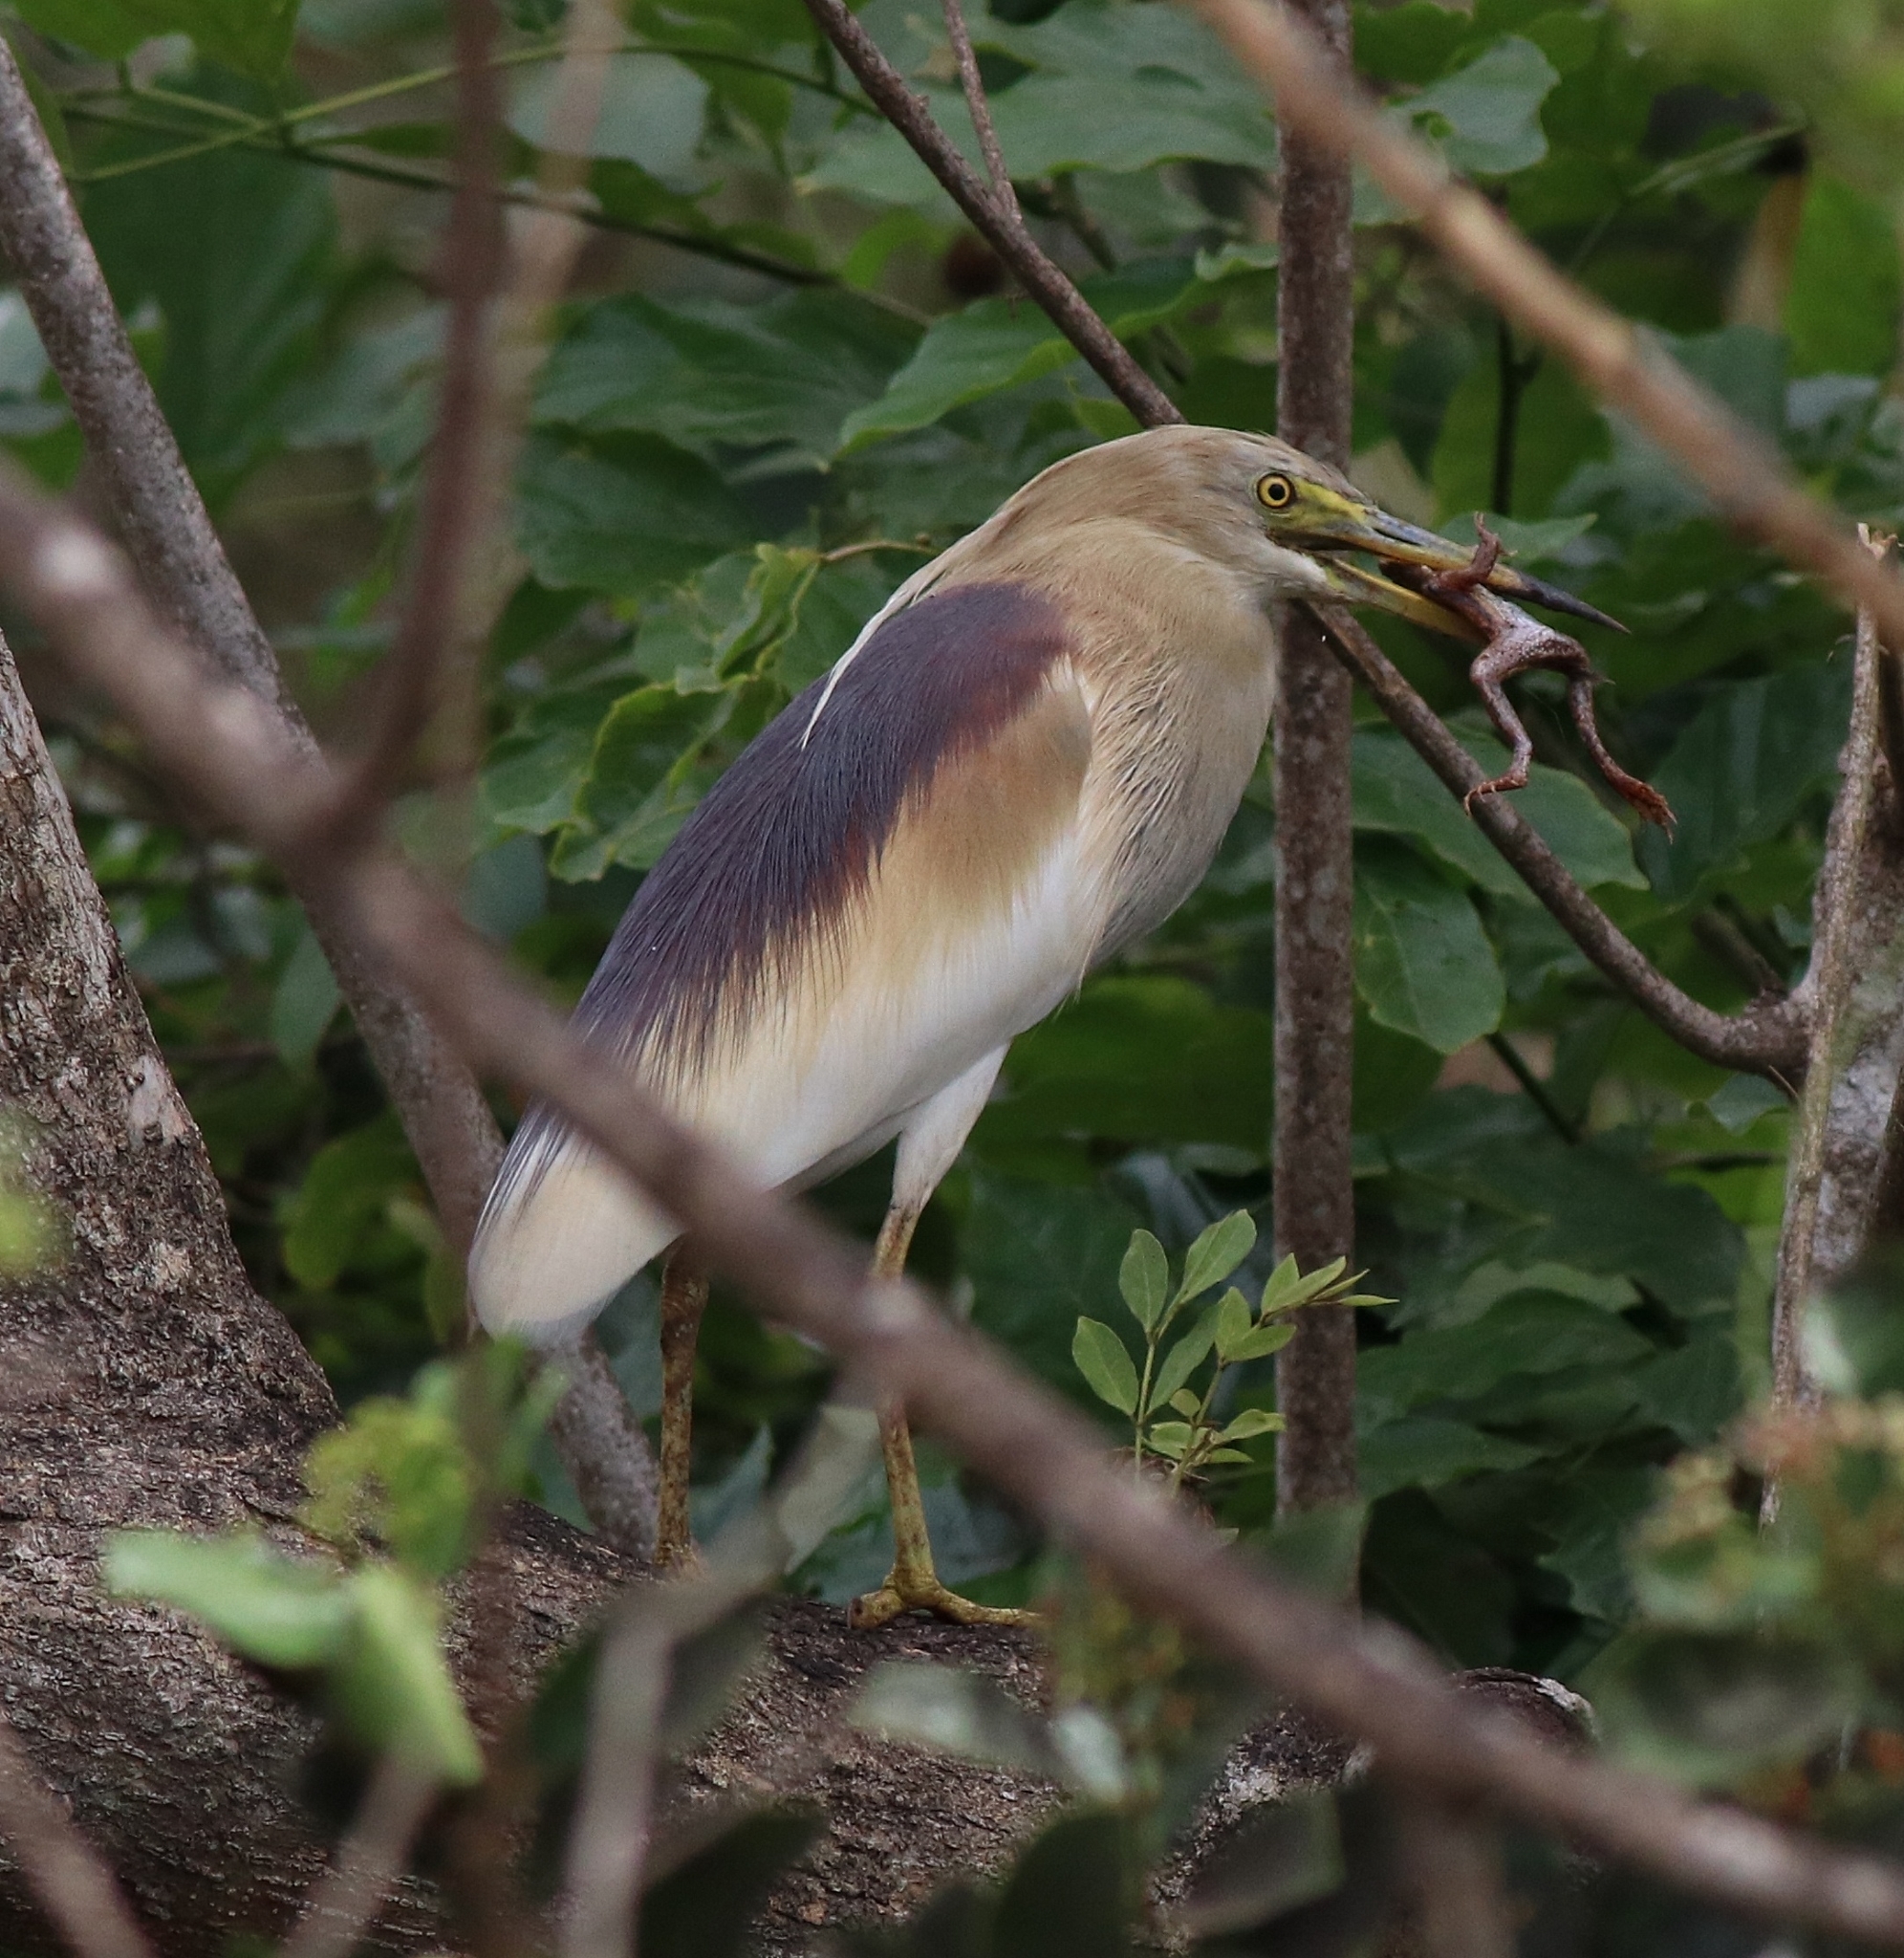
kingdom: Animalia
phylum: Chordata
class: Aves
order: Pelecaniformes
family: Ardeidae
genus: Ardeola
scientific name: Ardeola grayii
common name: Indian pond heron
